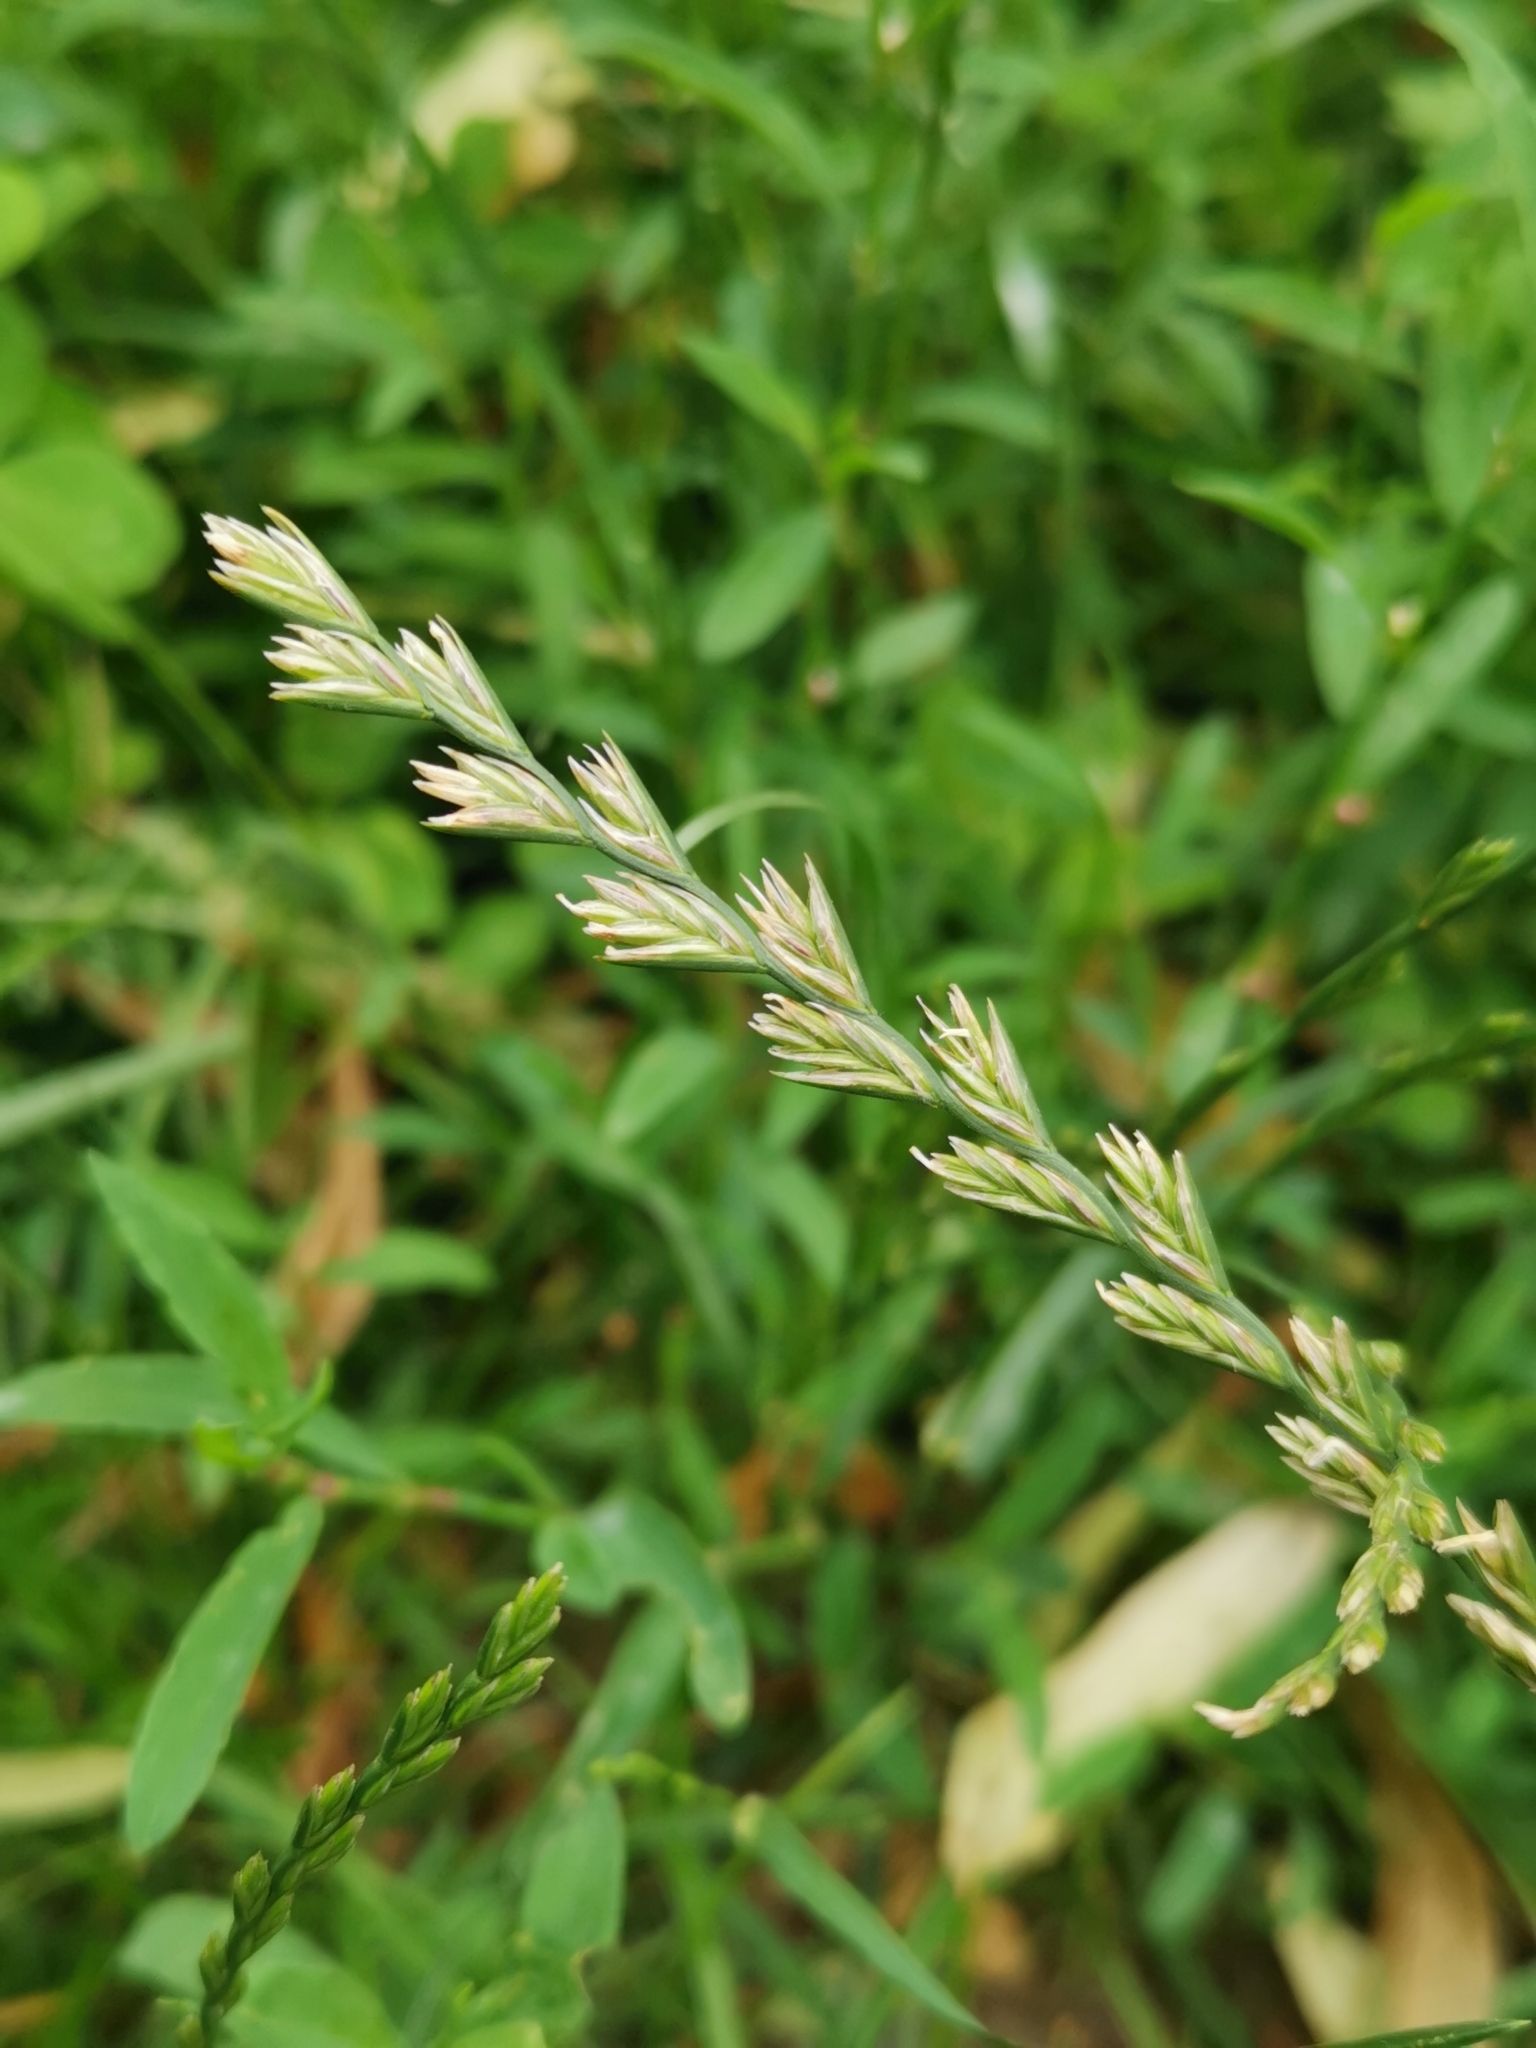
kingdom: Plantae
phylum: Tracheophyta
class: Liliopsida
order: Poales
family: Poaceae
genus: Lolium
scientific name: Lolium perenne
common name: Perennial ryegrass
